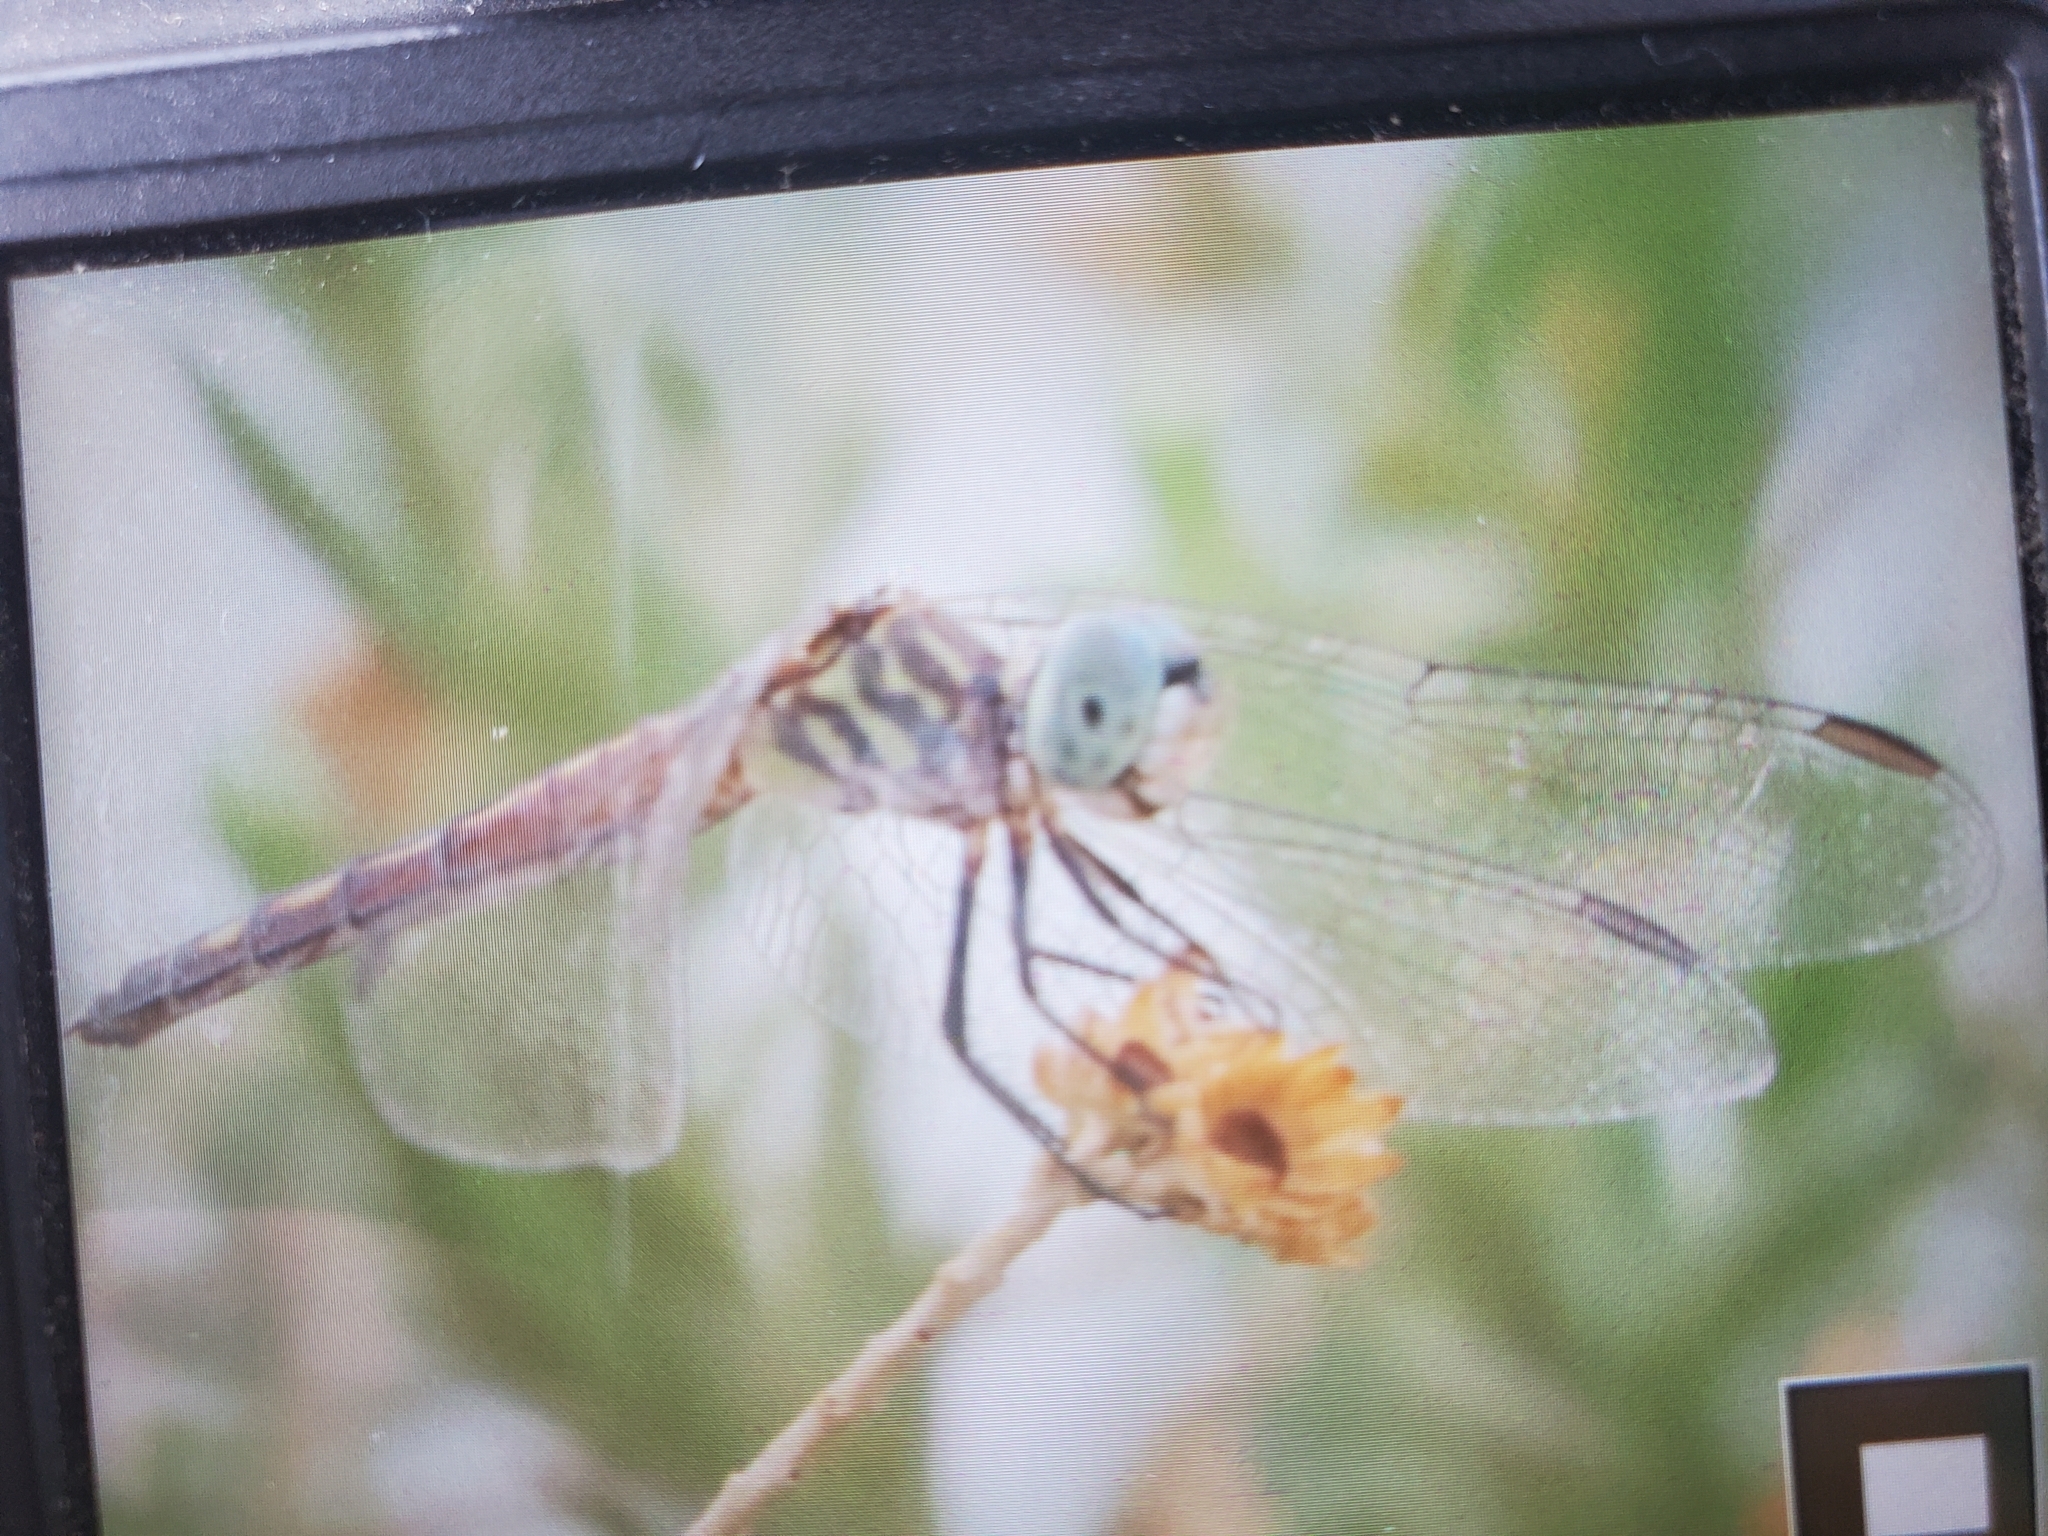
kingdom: Animalia
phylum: Arthropoda
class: Insecta
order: Odonata
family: Libellulidae
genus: Pachydiplax
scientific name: Pachydiplax longipennis
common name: Blue dasher
